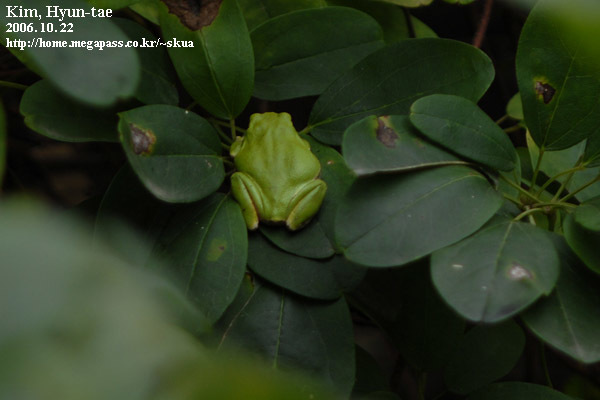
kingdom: Animalia
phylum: Chordata
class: Amphibia
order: Anura
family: Hylidae
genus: Dryophytes
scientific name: Dryophytes japonicus
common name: Japanese treefrog
